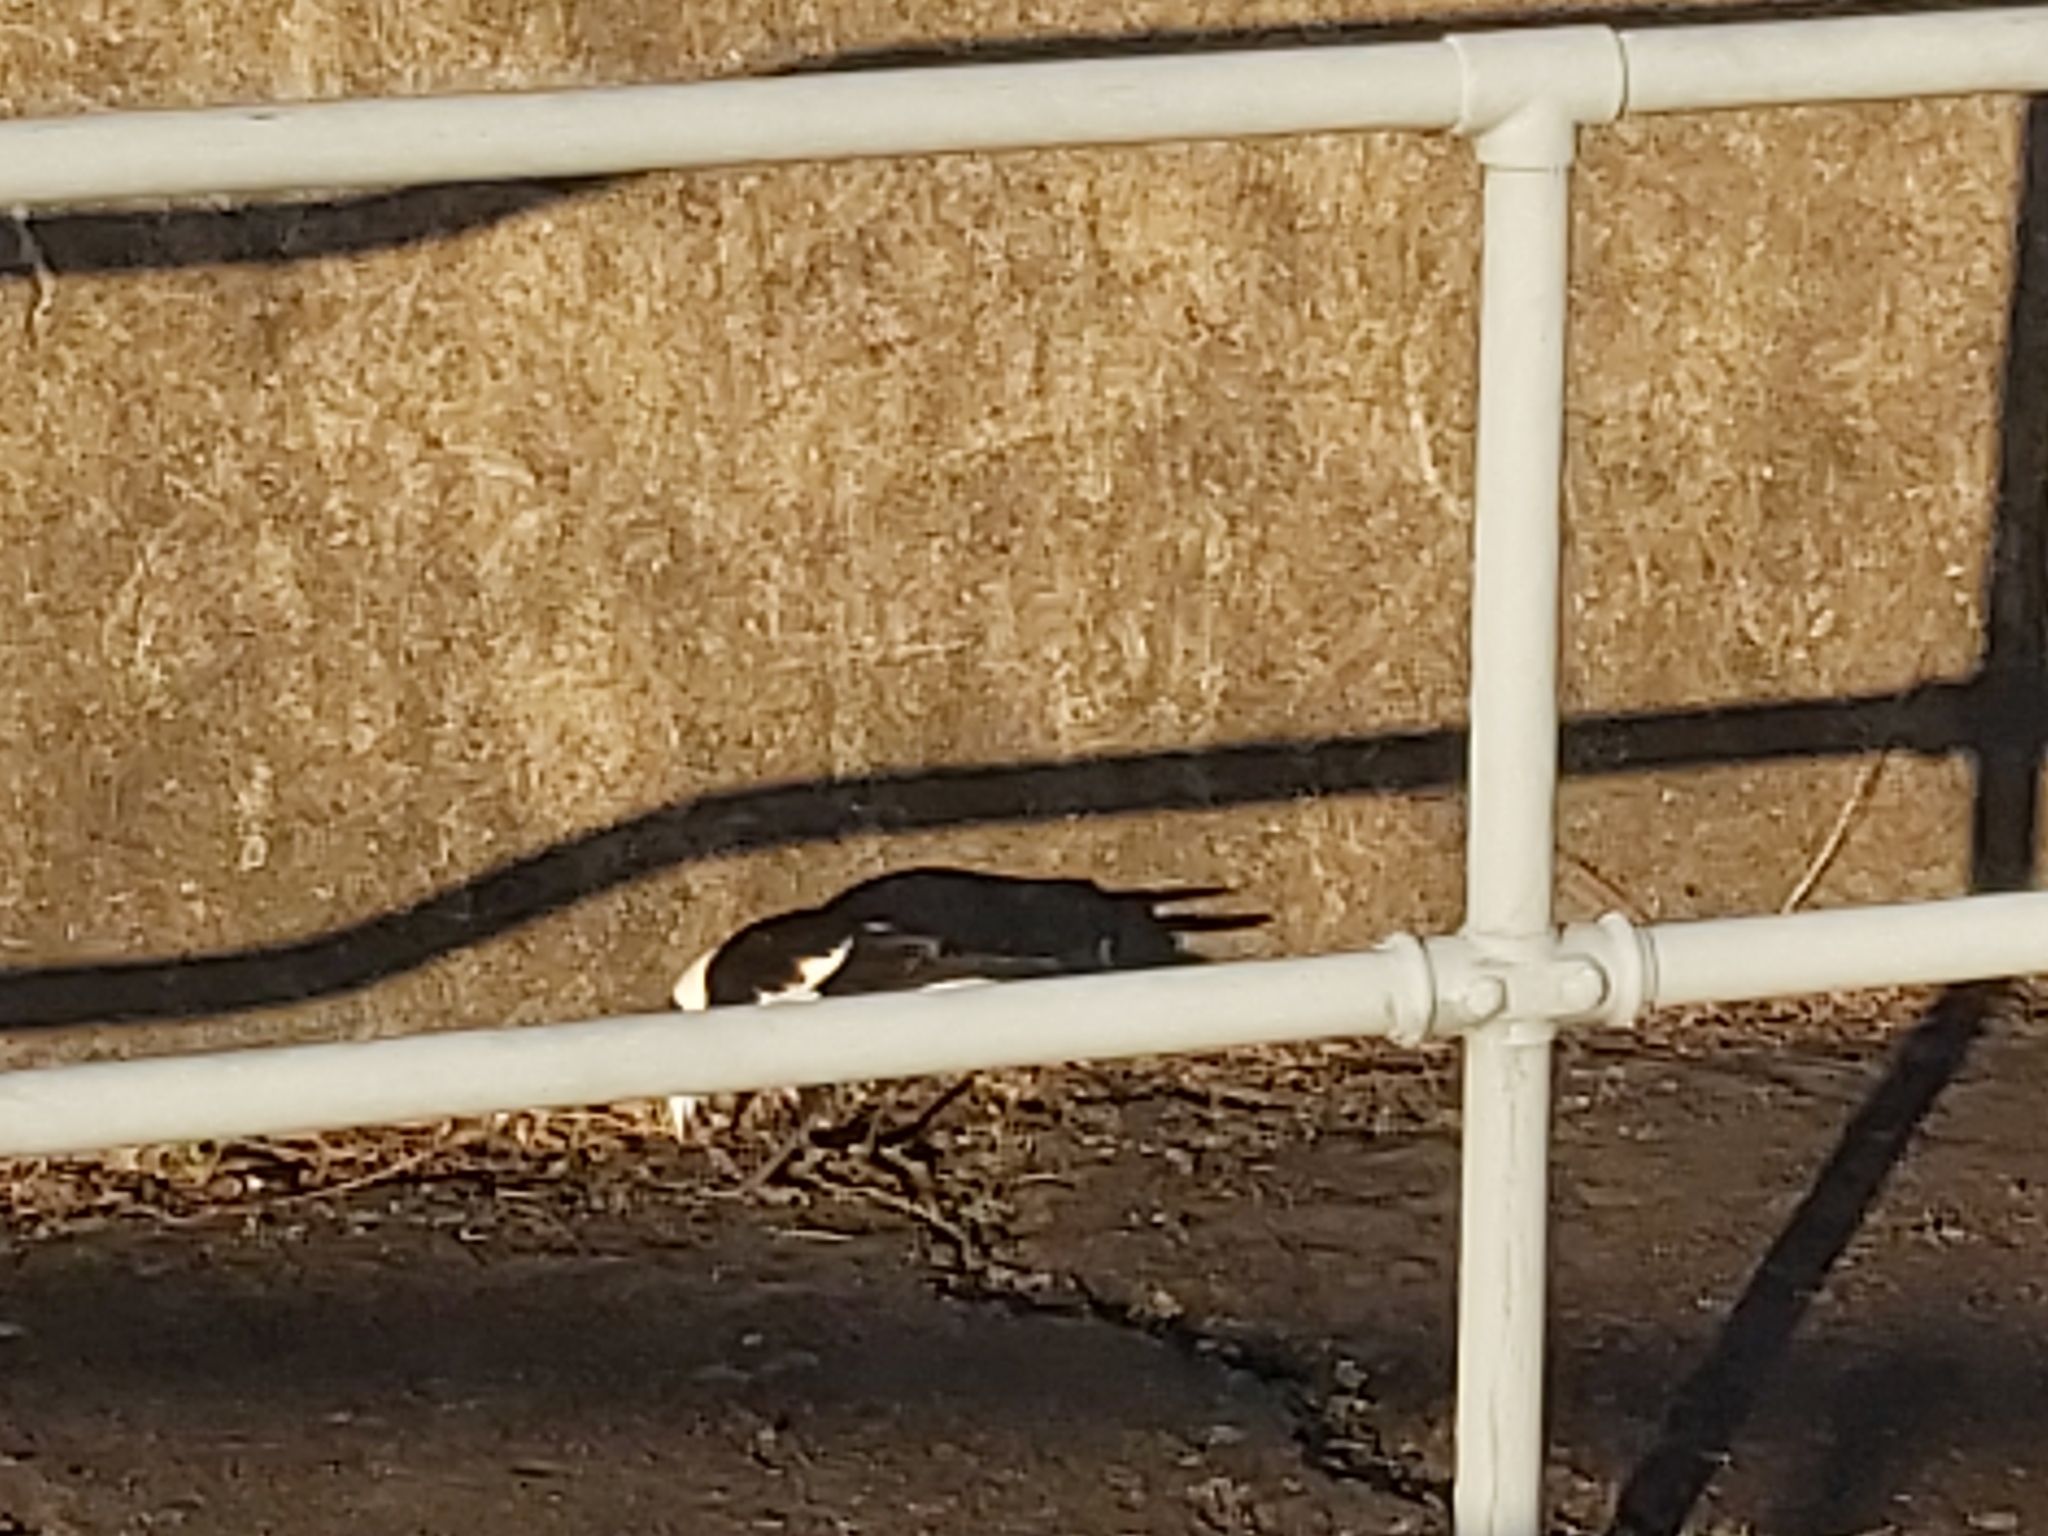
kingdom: Animalia
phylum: Chordata
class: Aves
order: Passeriformes
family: Cracticidae
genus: Gymnorhina
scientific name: Gymnorhina tibicen
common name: Australian magpie
